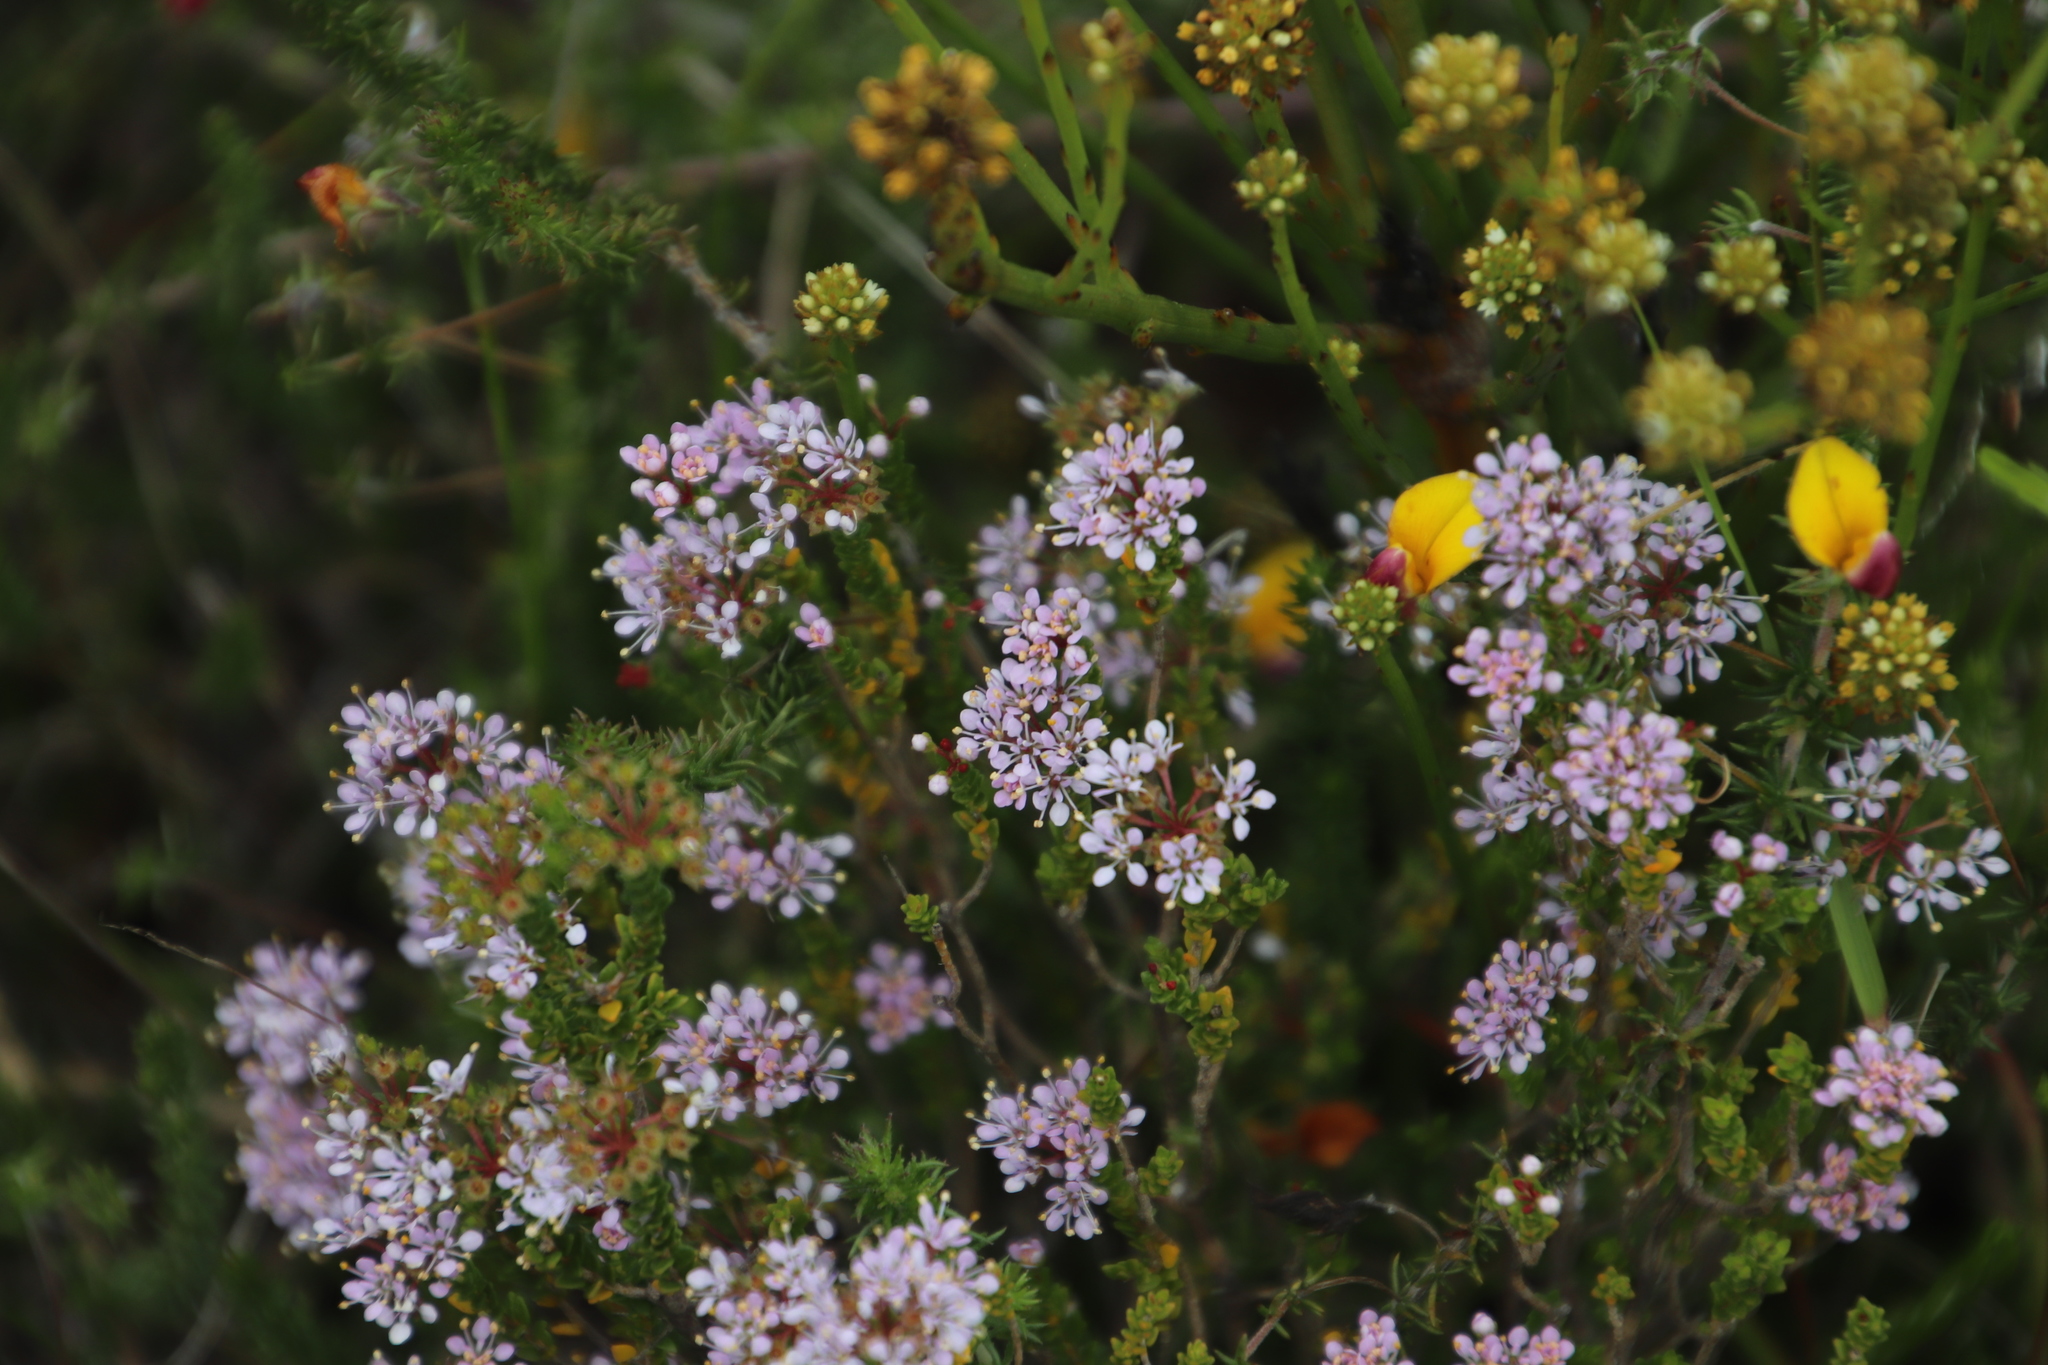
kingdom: Plantae
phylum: Tracheophyta
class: Magnoliopsida
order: Sapindales
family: Rutaceae
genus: Agathosma
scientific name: Agathosma glabrata
